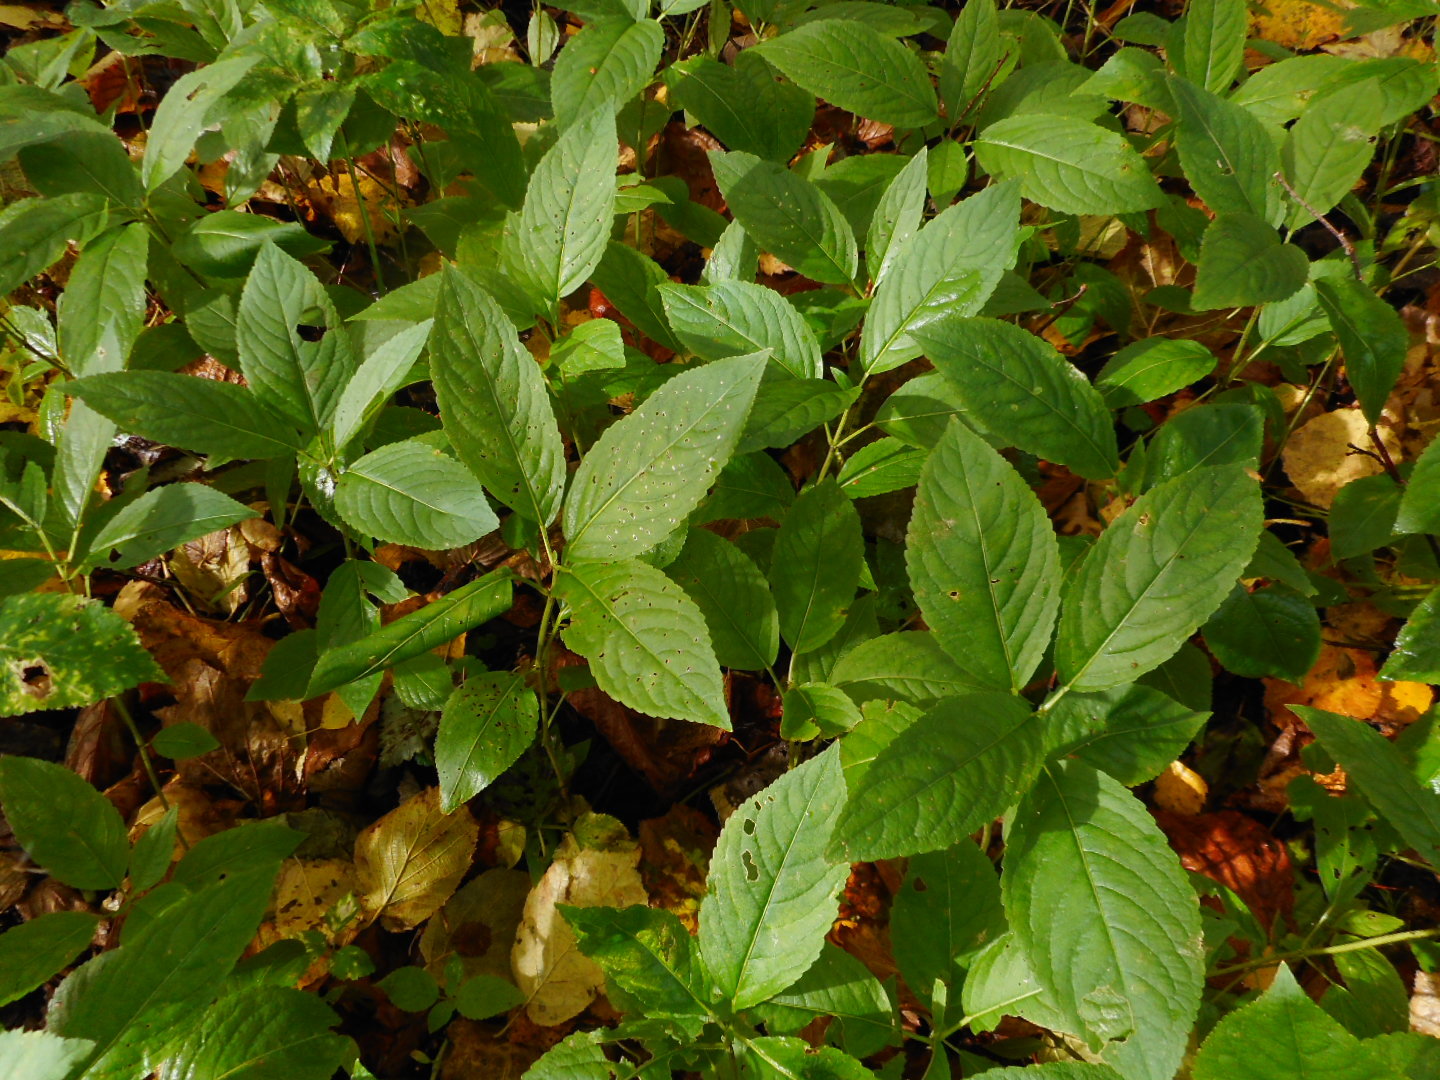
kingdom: Plantae
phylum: Tracheophyta
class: Magnoliopsida
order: Malpighiales
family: Euphorbiaceae
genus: Mercurialis
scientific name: Mercurialis perennis
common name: Dog mercury
